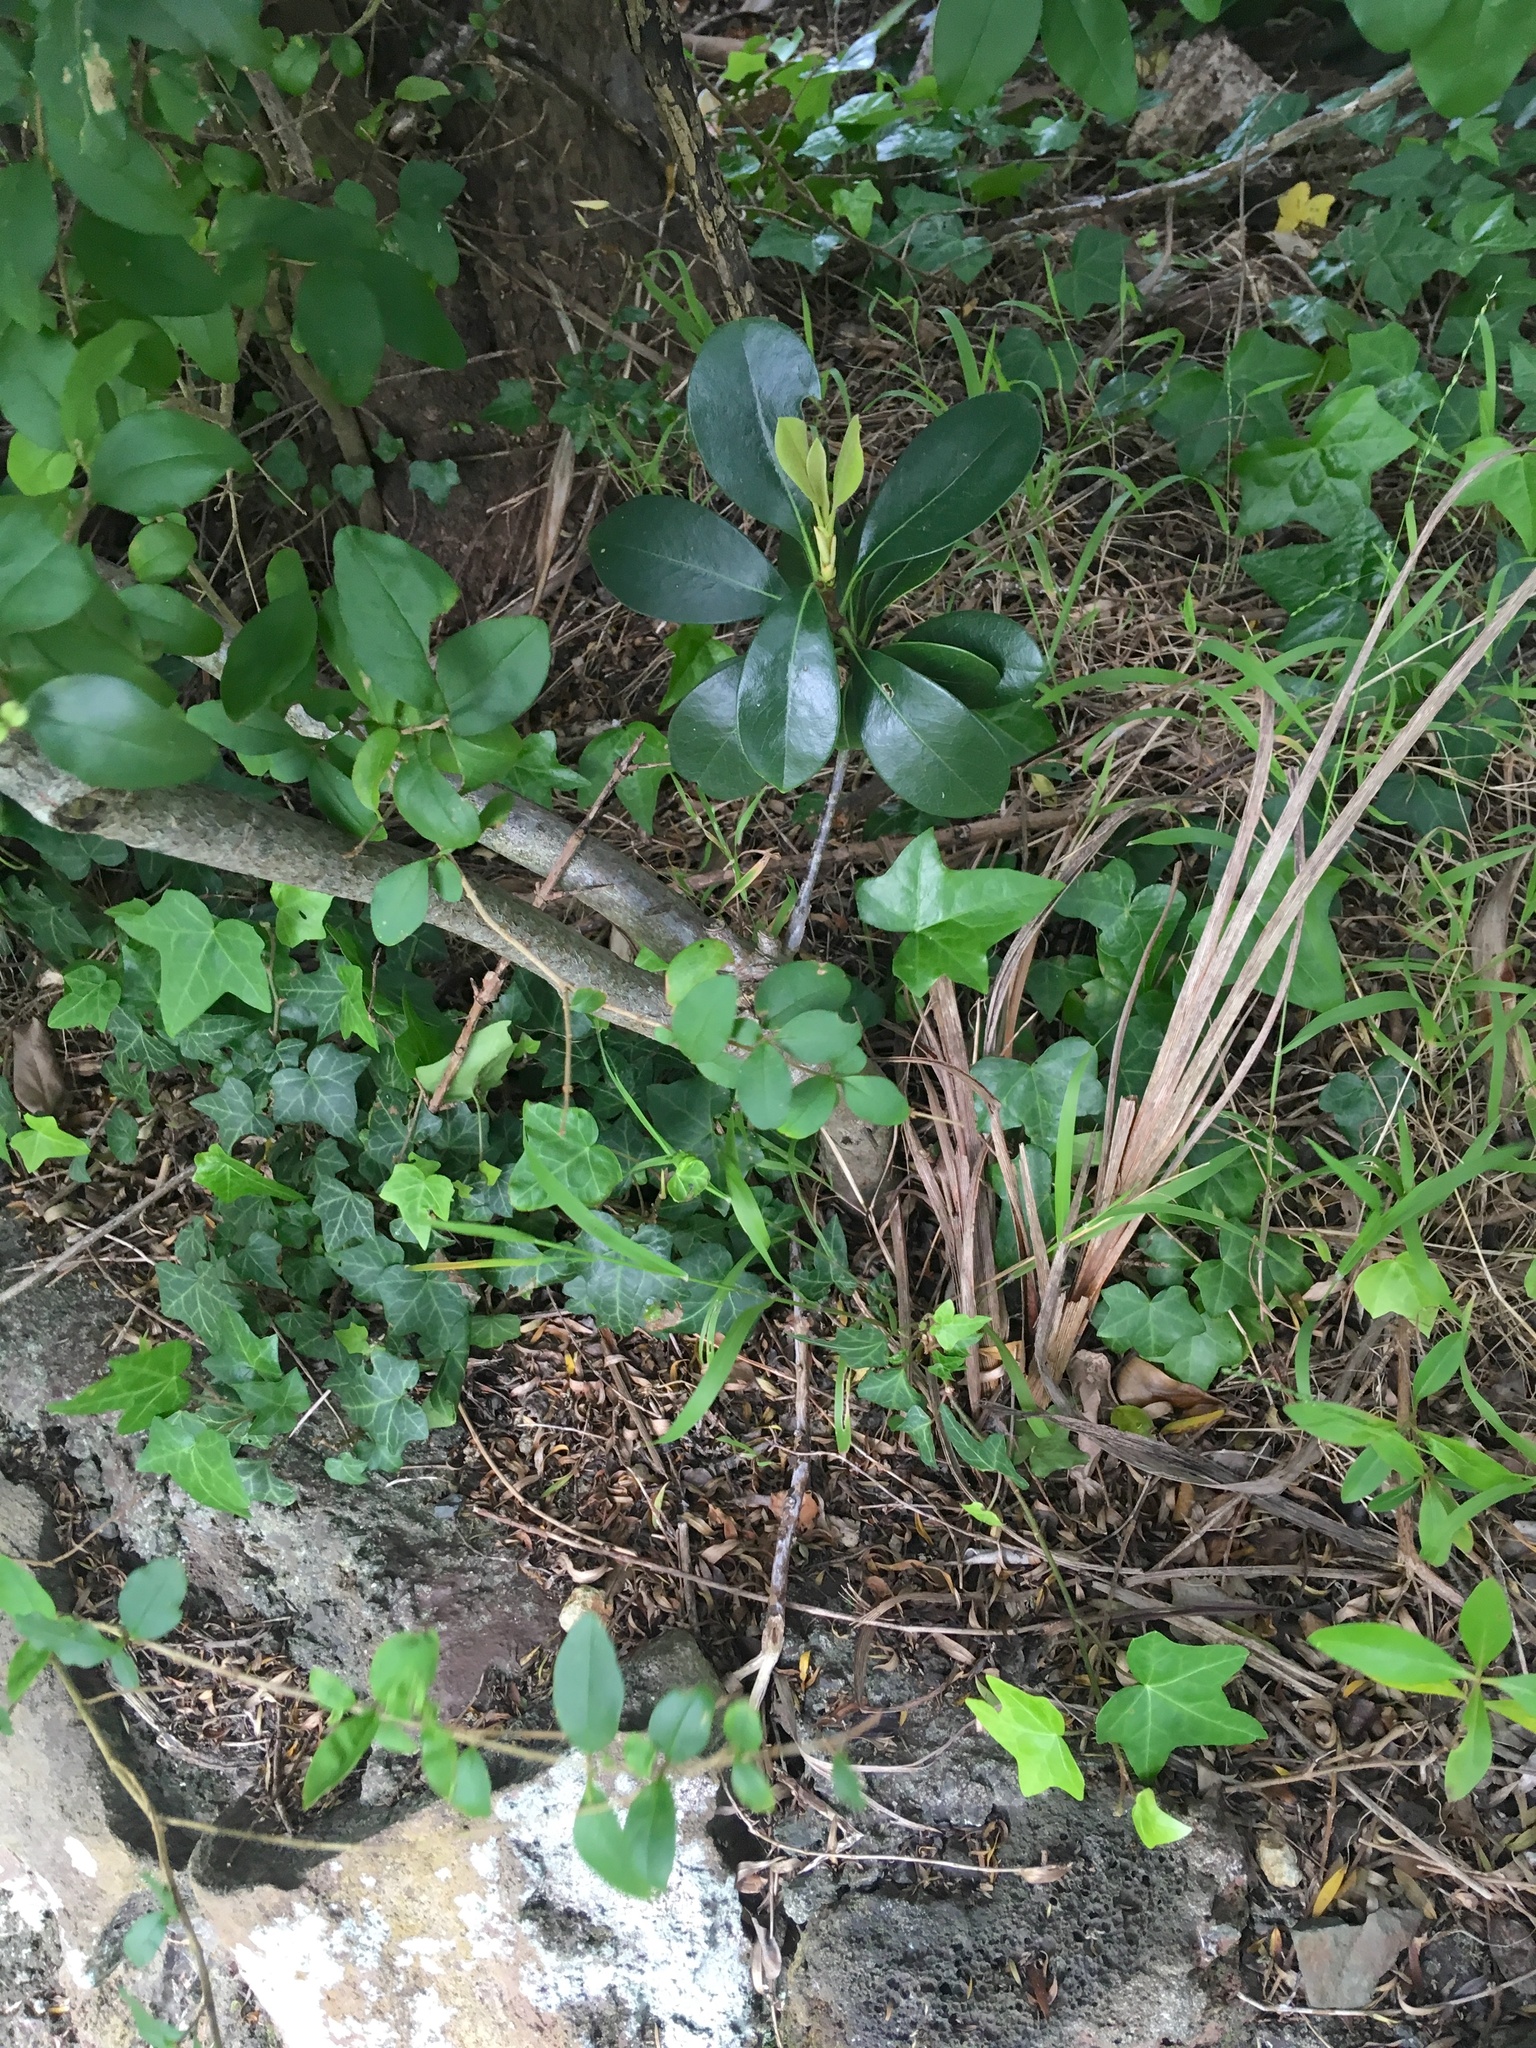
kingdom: Plantae
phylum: Tracheophyta
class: Magnoliopsida
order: Cucurbitales
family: Corynocarpaceae
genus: Corynocarpus
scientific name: Corynocarpus laevigatus
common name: New zealand laurel
